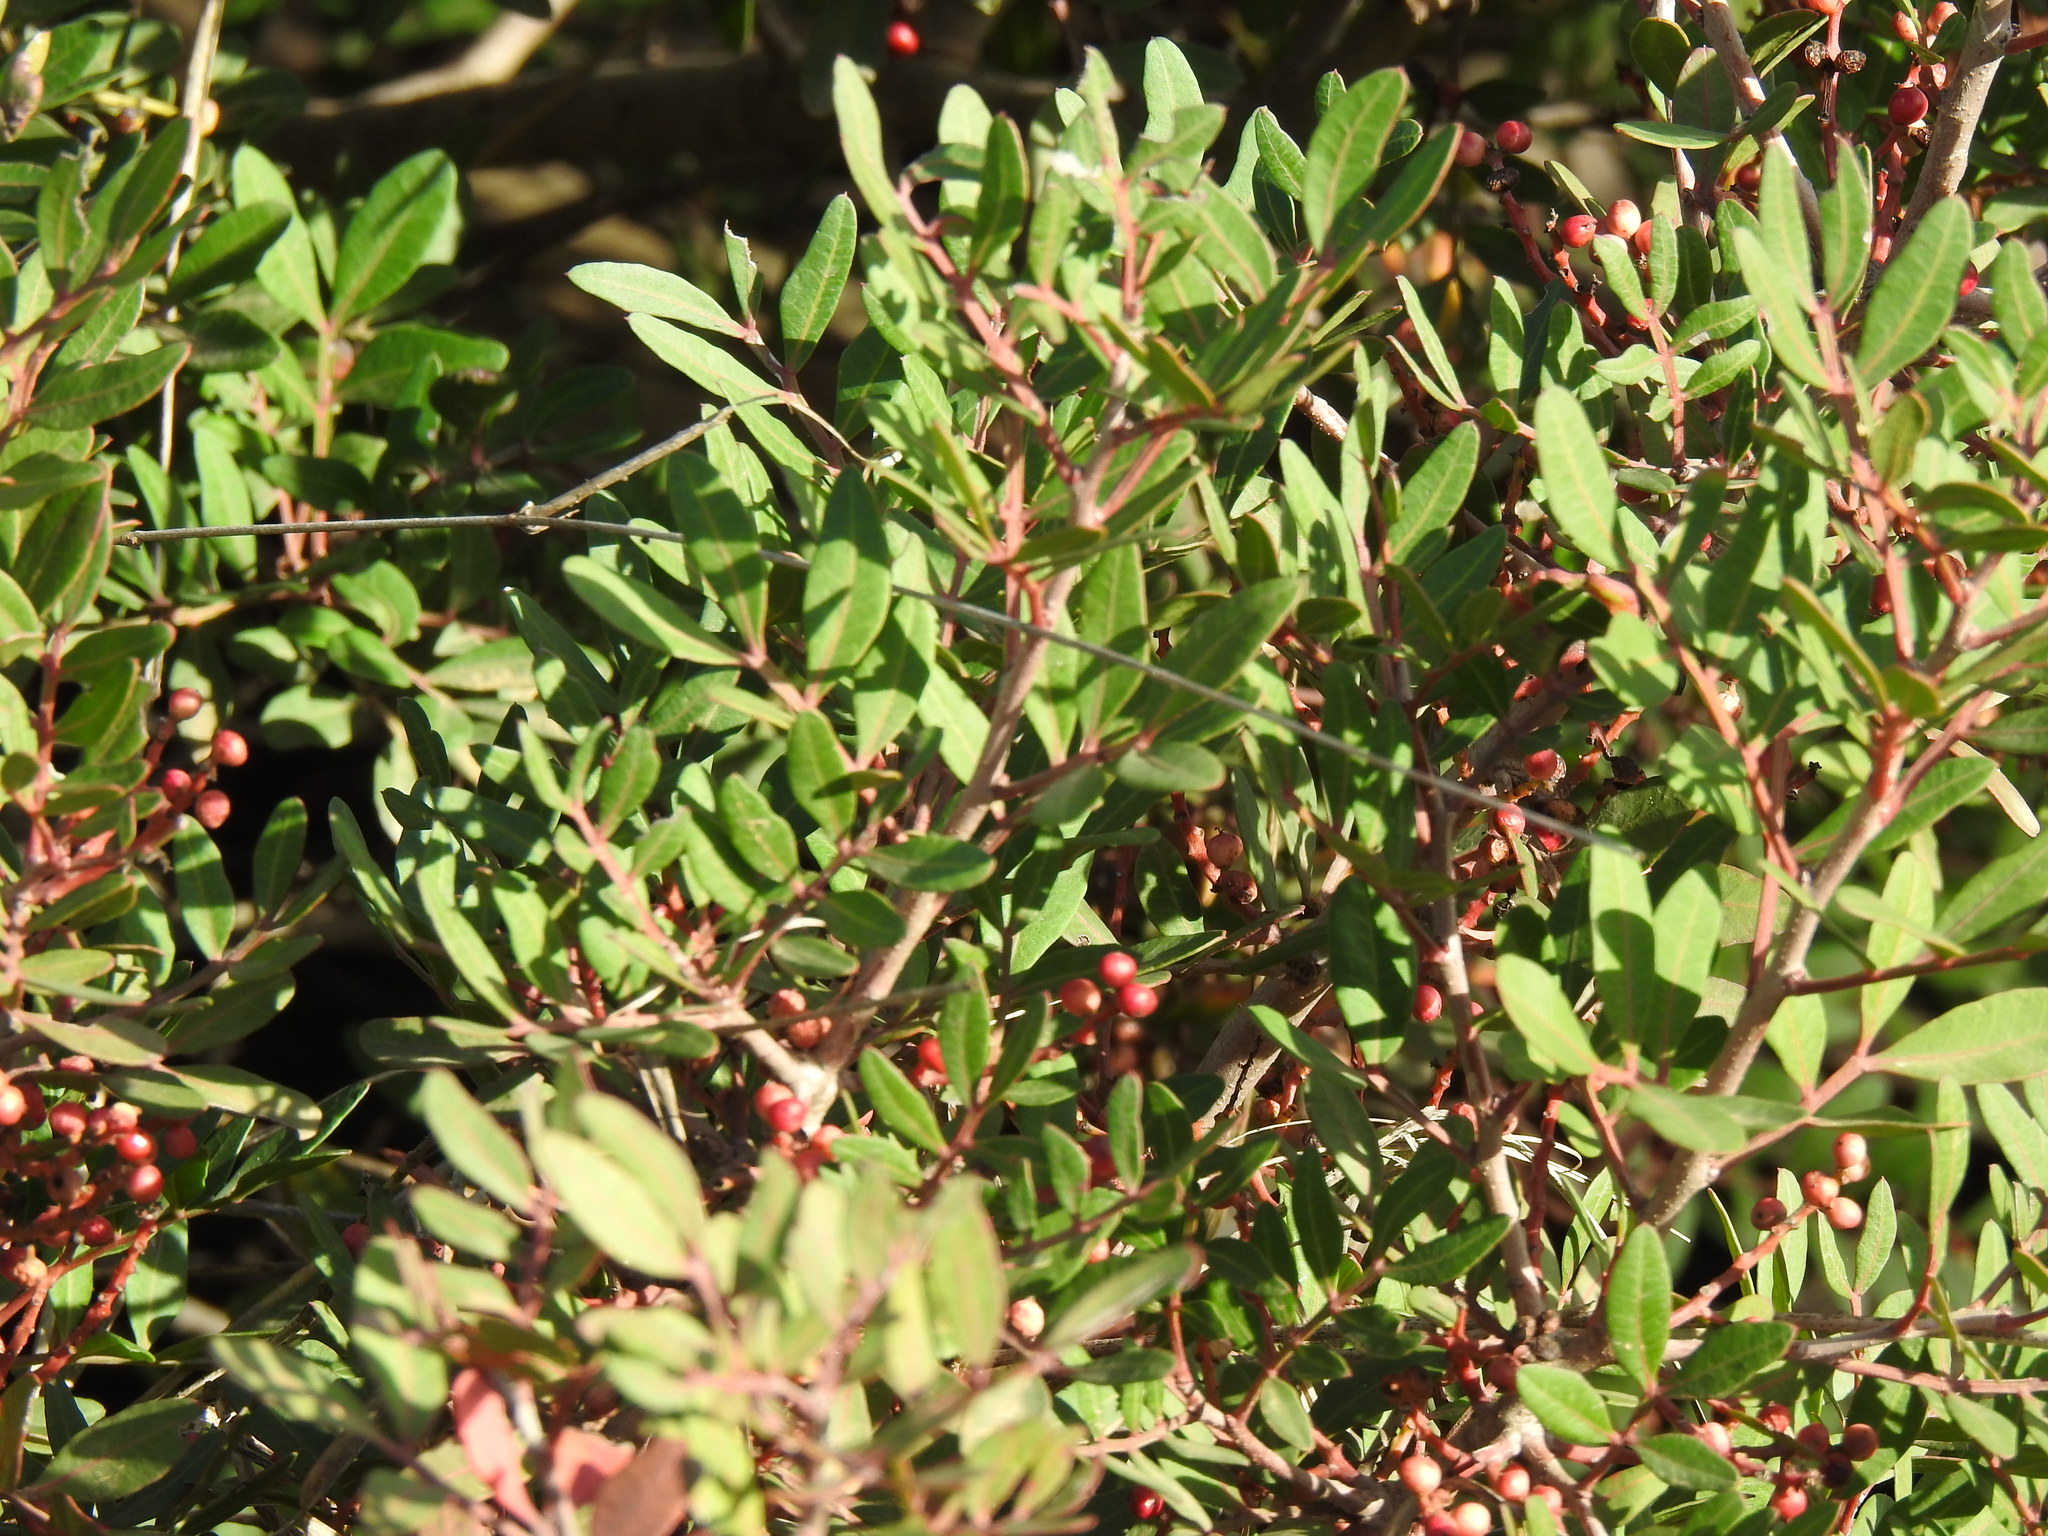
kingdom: Plantae
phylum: Tracheophyta
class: Magnoliopsida
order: Sapindales
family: Anacardiaceae
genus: Pistacia
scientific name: Pistacia lentiscus
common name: Lentisk
